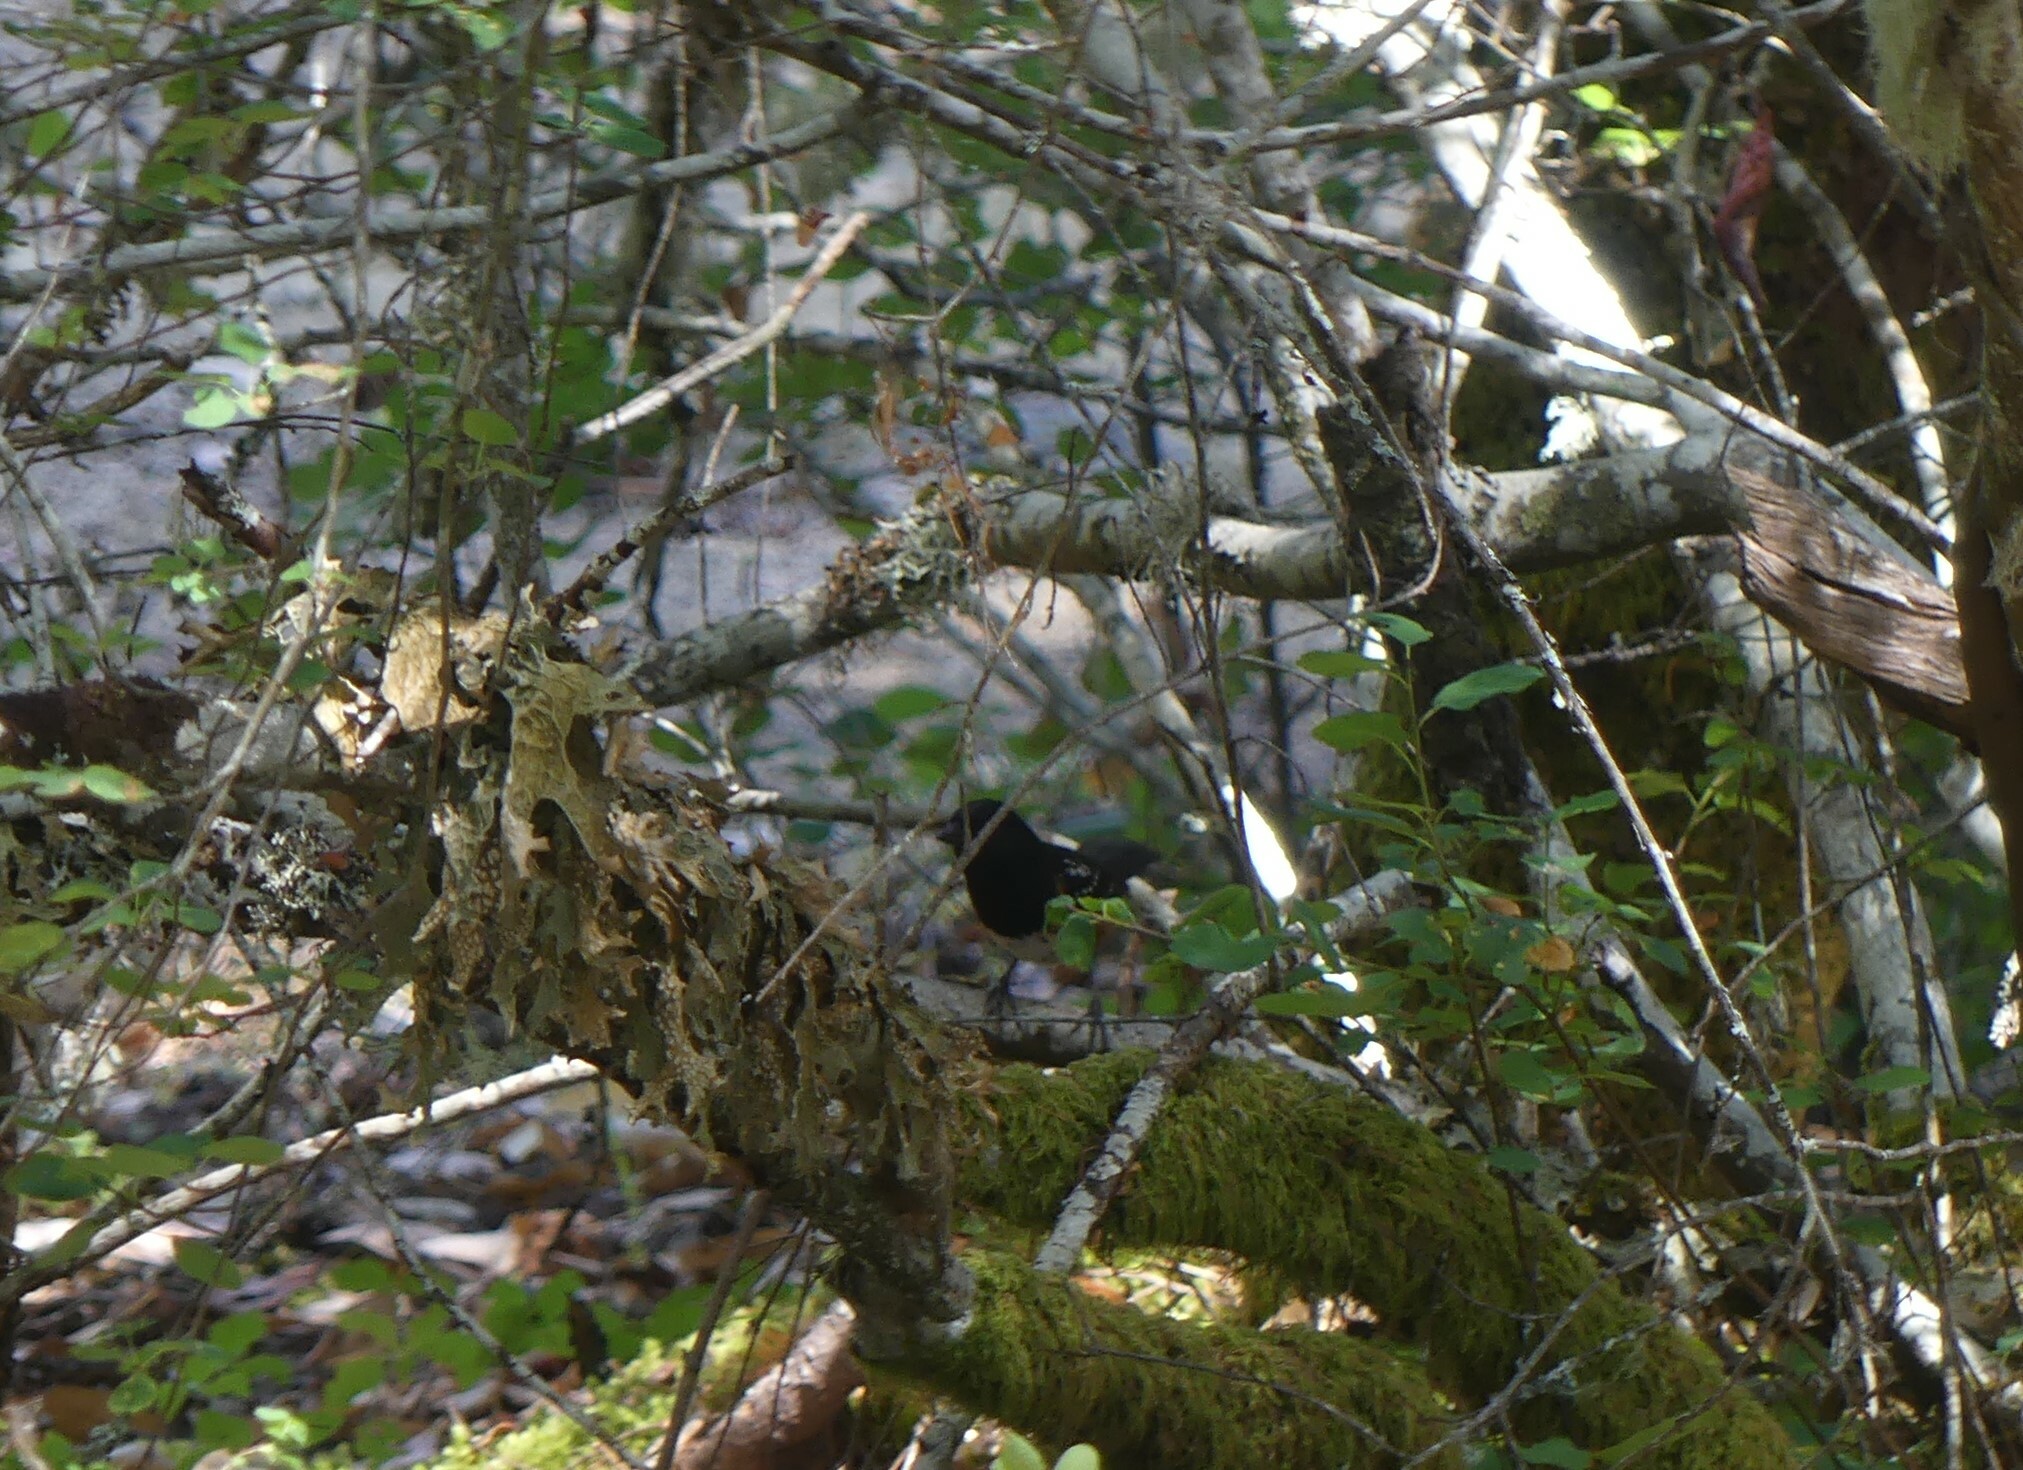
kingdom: Animalia
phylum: Chordata
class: Aves
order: Passeriformes
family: Passerellidae
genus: Pipilo
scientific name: Pipilo maculatus
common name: Spotted towhee
